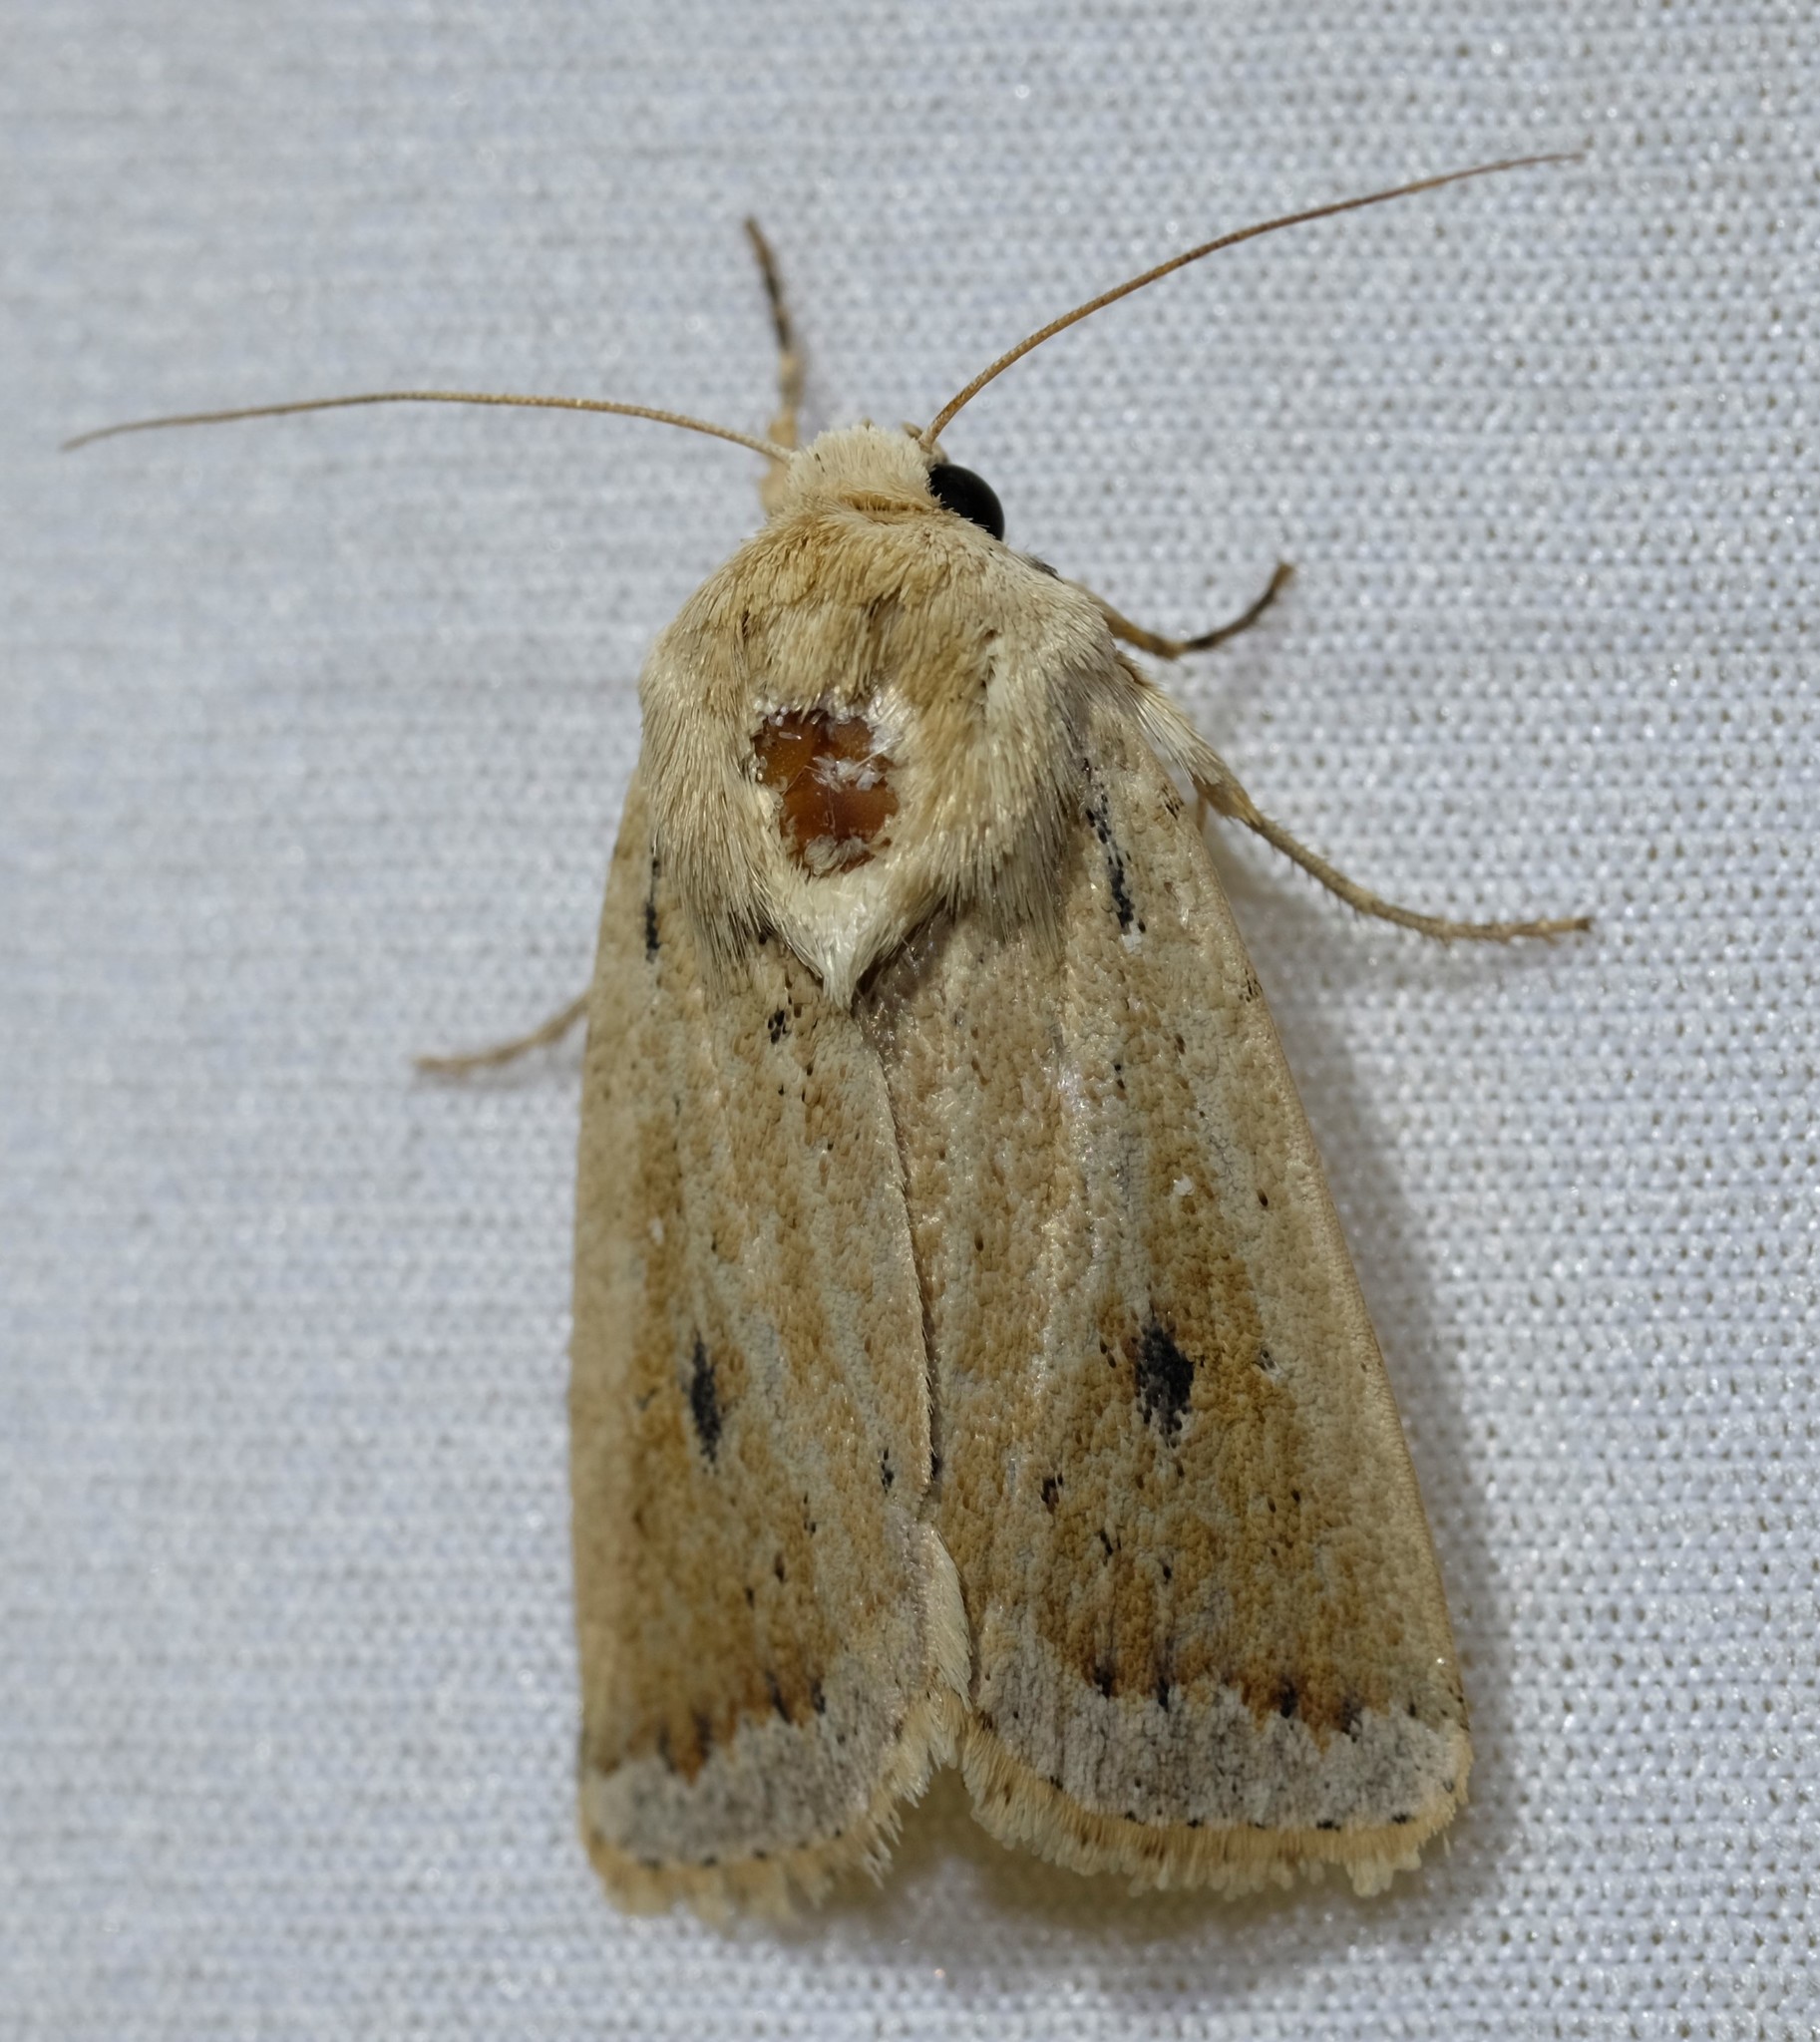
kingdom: Animalia
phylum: Arthropoda
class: Insecta
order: Lepidoptera
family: Noctuidae
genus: Proteuxoa
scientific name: Proteuxoa cyanoloma
